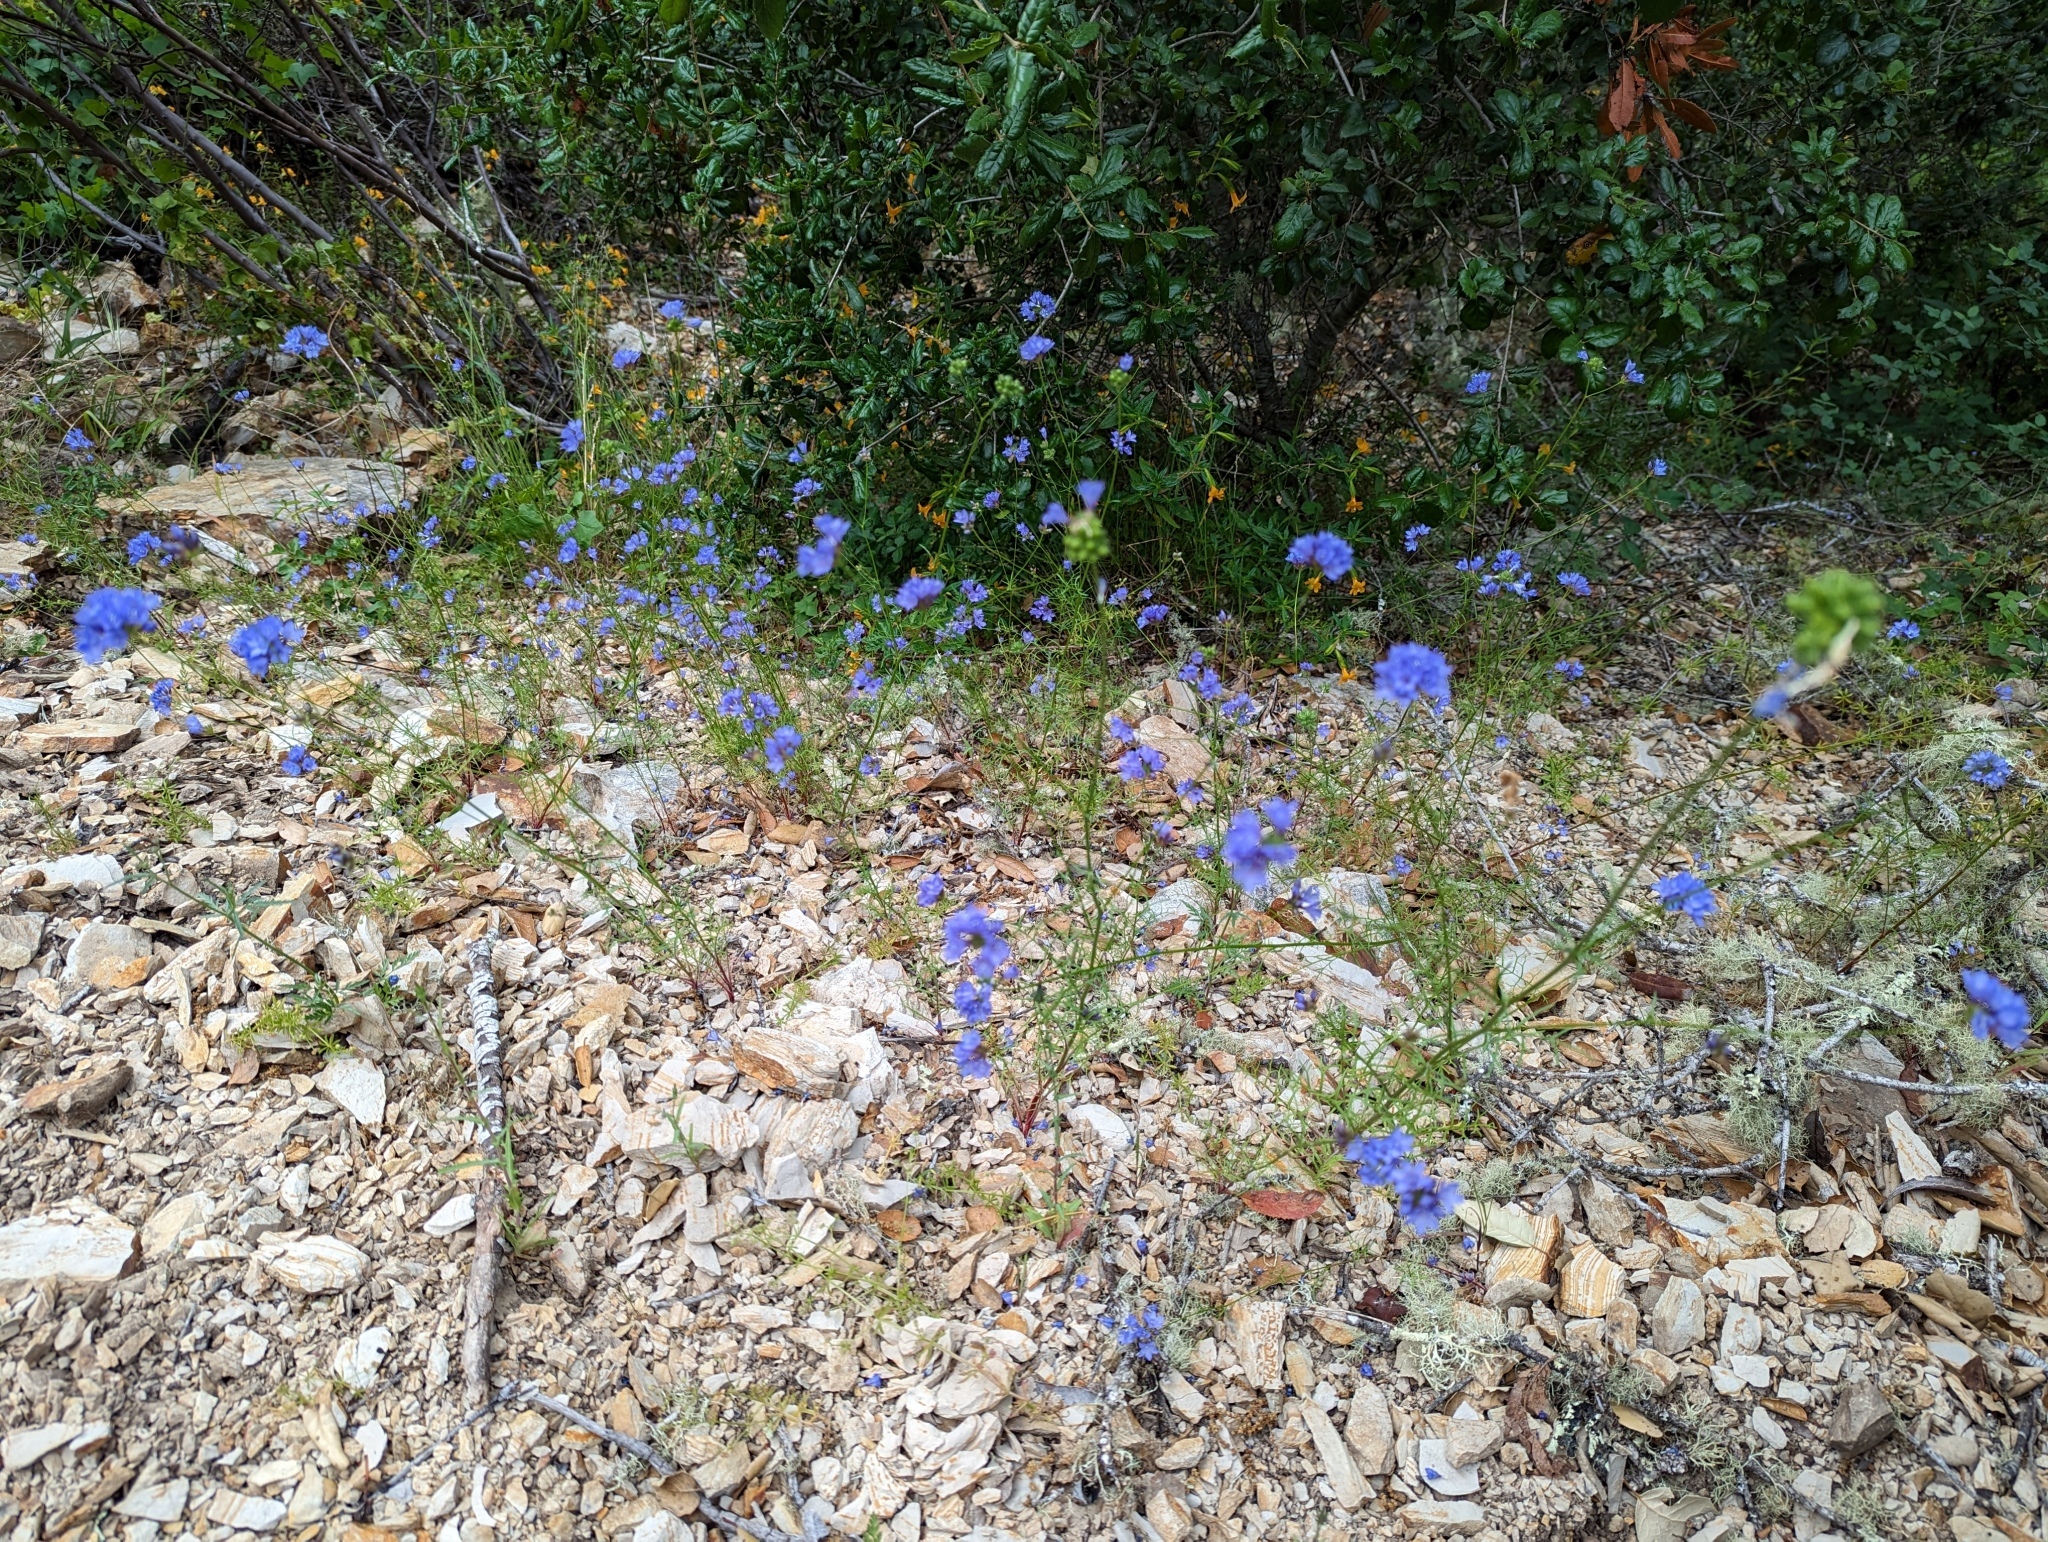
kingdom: Plantae
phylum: Tracheophyta
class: Magnoliopsida
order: Ericales
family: Polemoniaceae
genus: Gilia
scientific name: Gilia achilleifolia
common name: California gily-flower
